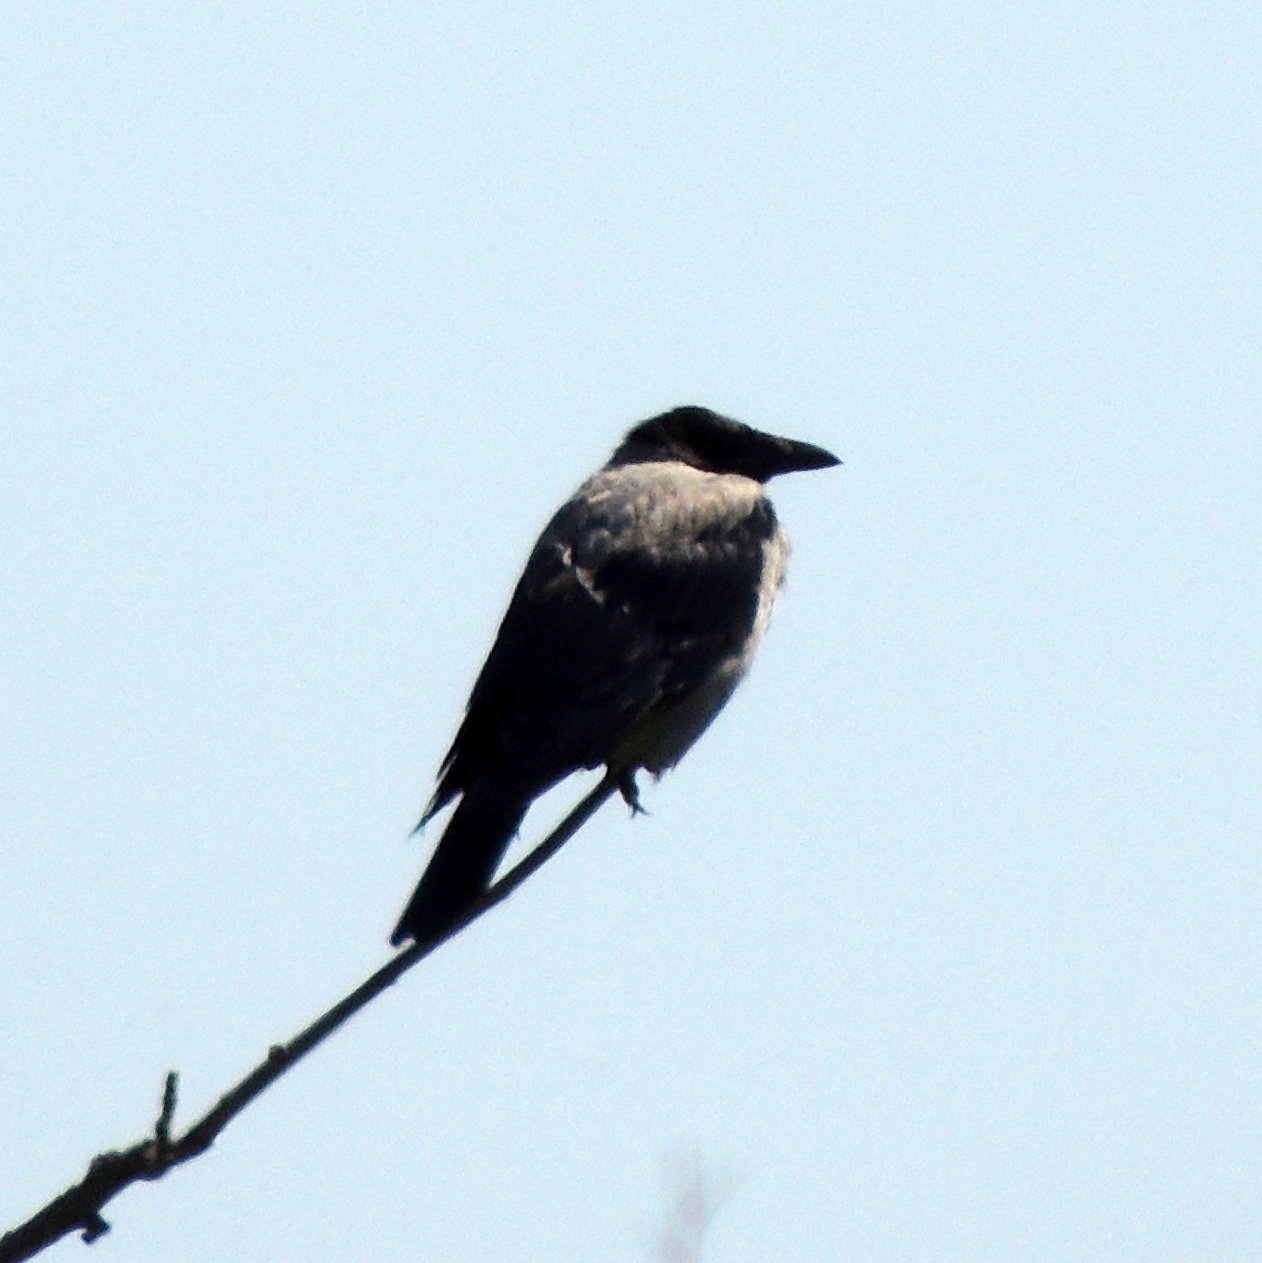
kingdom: Animalia
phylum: Chordata
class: Aves
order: Passeriformes
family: Corvidae
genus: Corvus
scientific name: Corvus cornix
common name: Hooded crow
